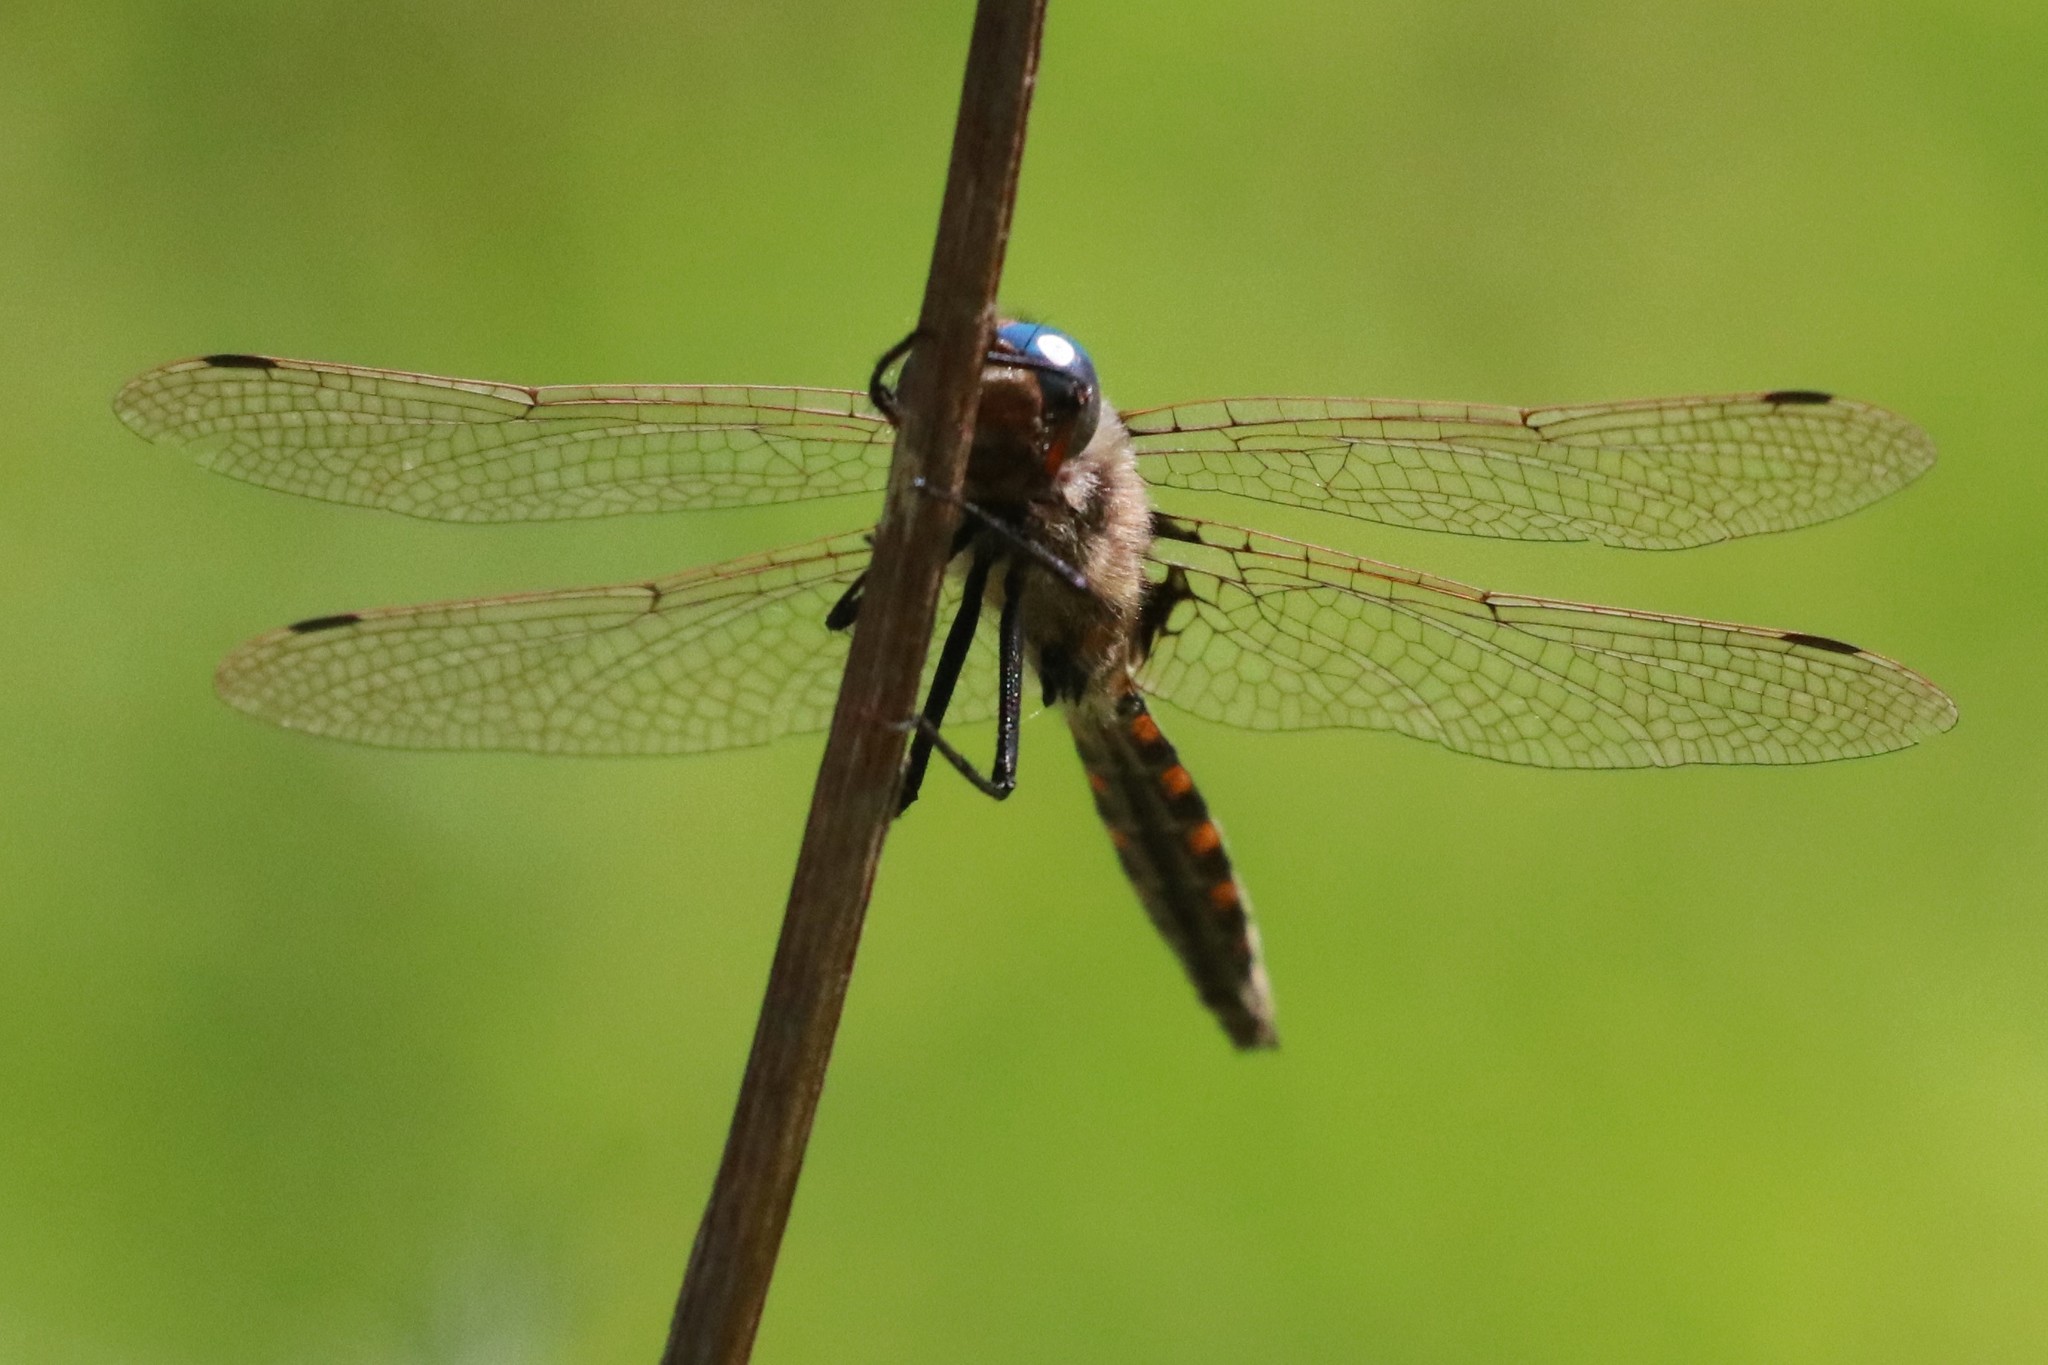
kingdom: Animalia
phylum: Arthropoda
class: Insecta
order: Odonata
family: Corduliidae
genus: Epitheca
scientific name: Epitheca canis
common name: Beaverpond baskettail
